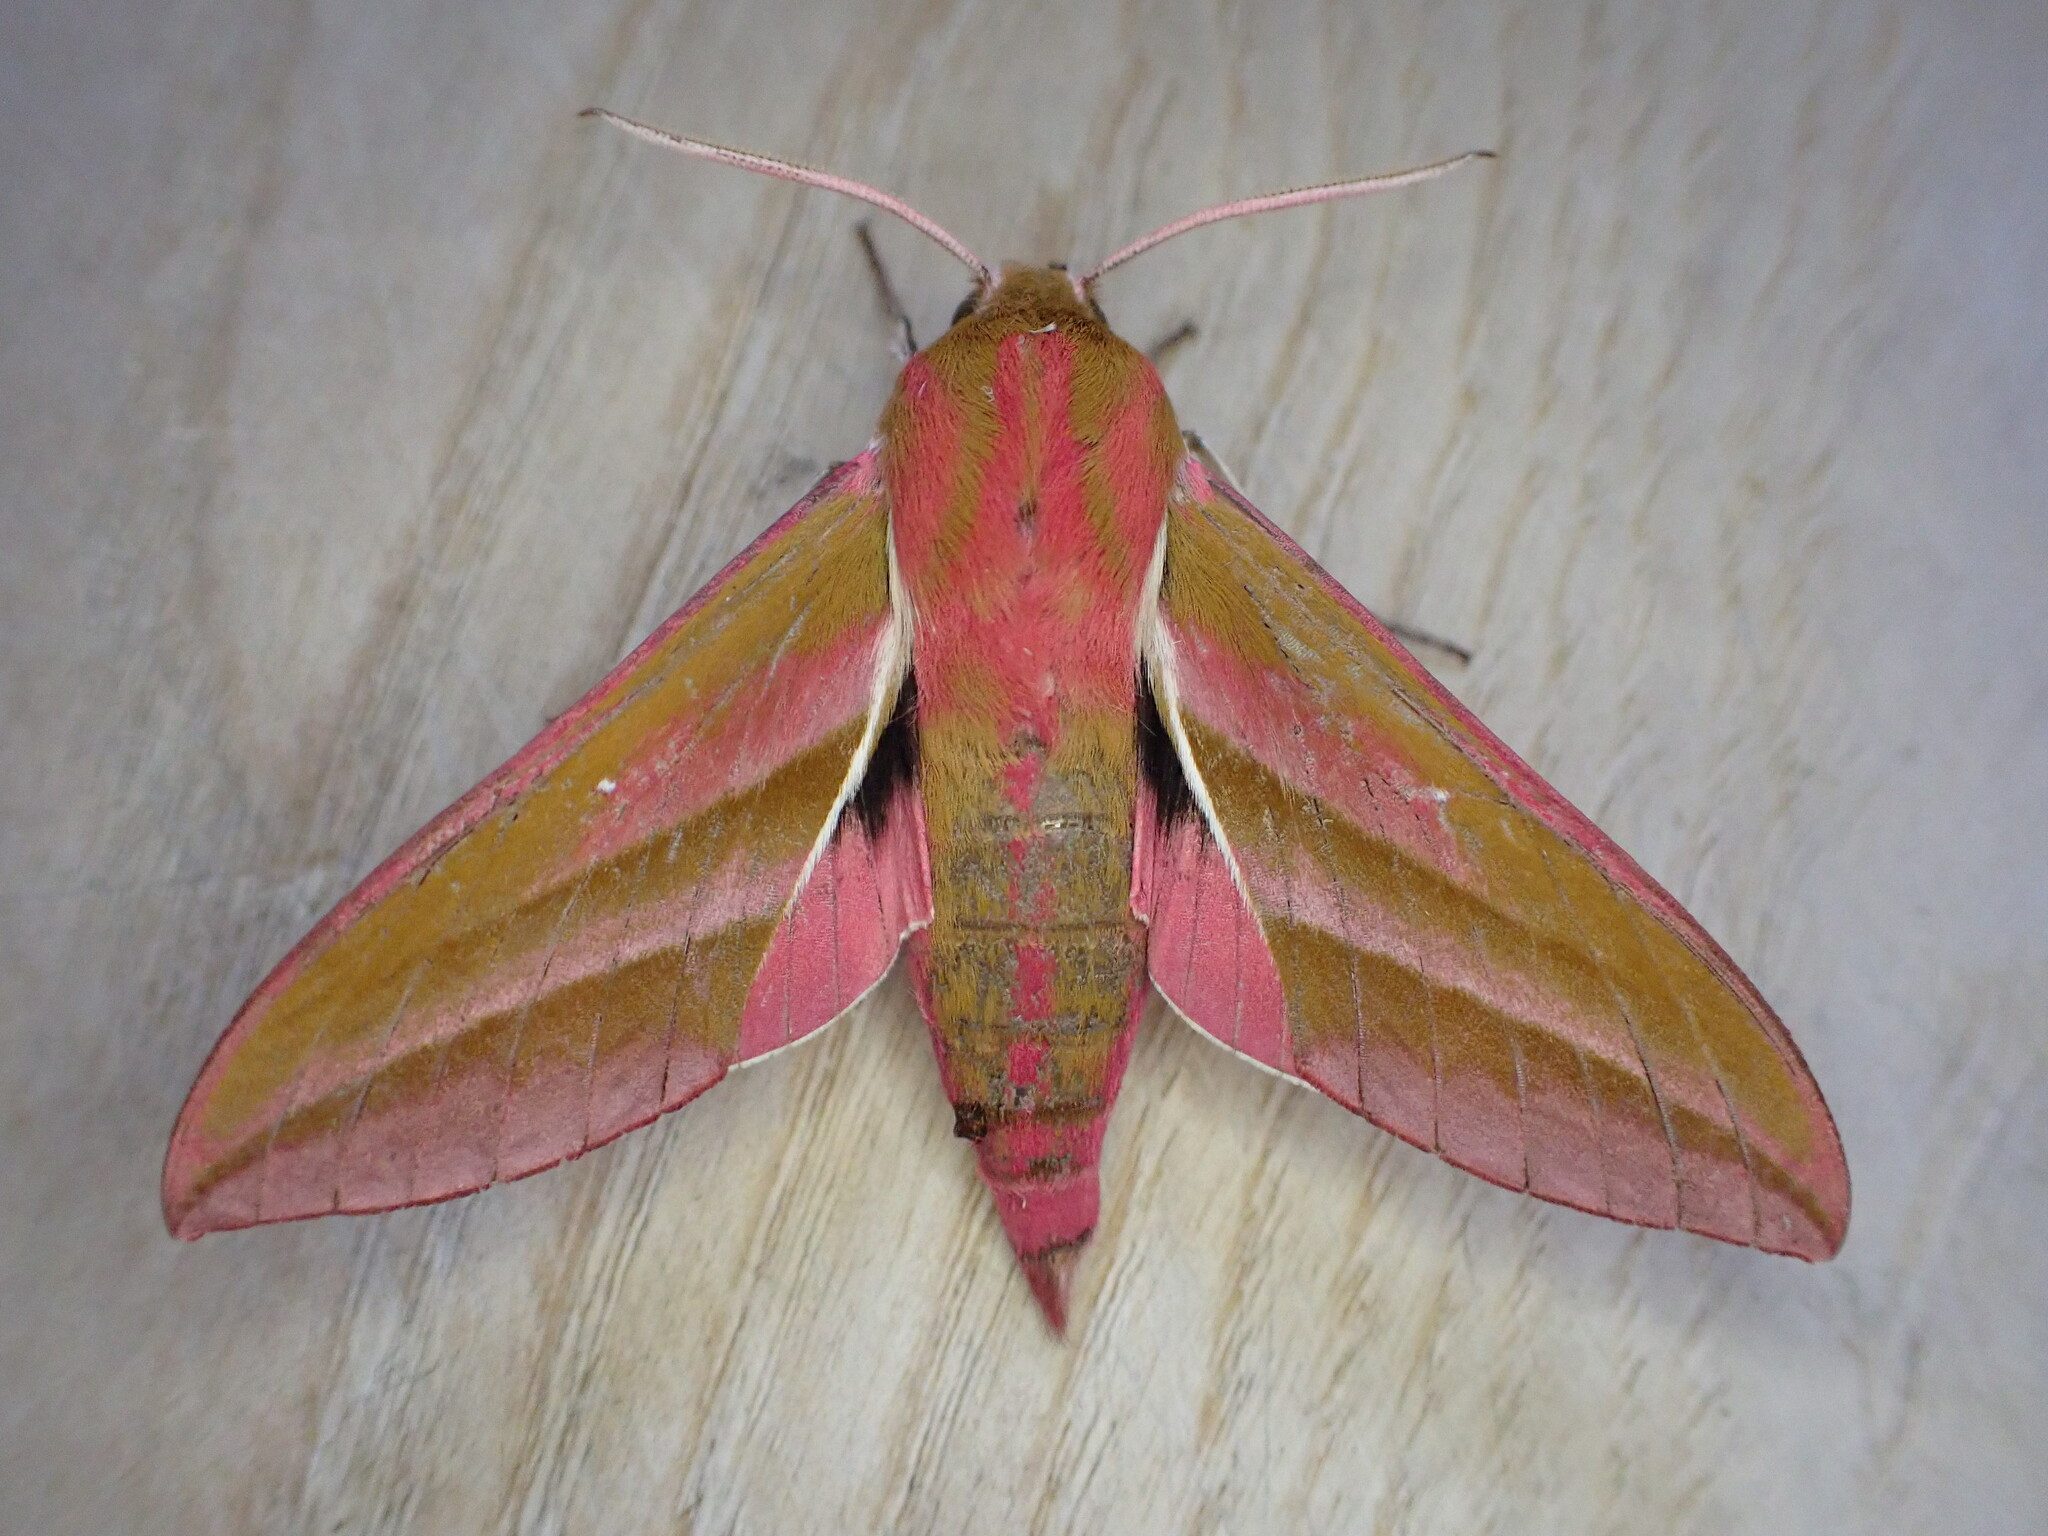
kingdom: Animalia
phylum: Arthropoda
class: Insecta
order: Lepidoptera
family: Sphingidae
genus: Deilephila
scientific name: Deilephila elpenor
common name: Elephant hawk-moth
